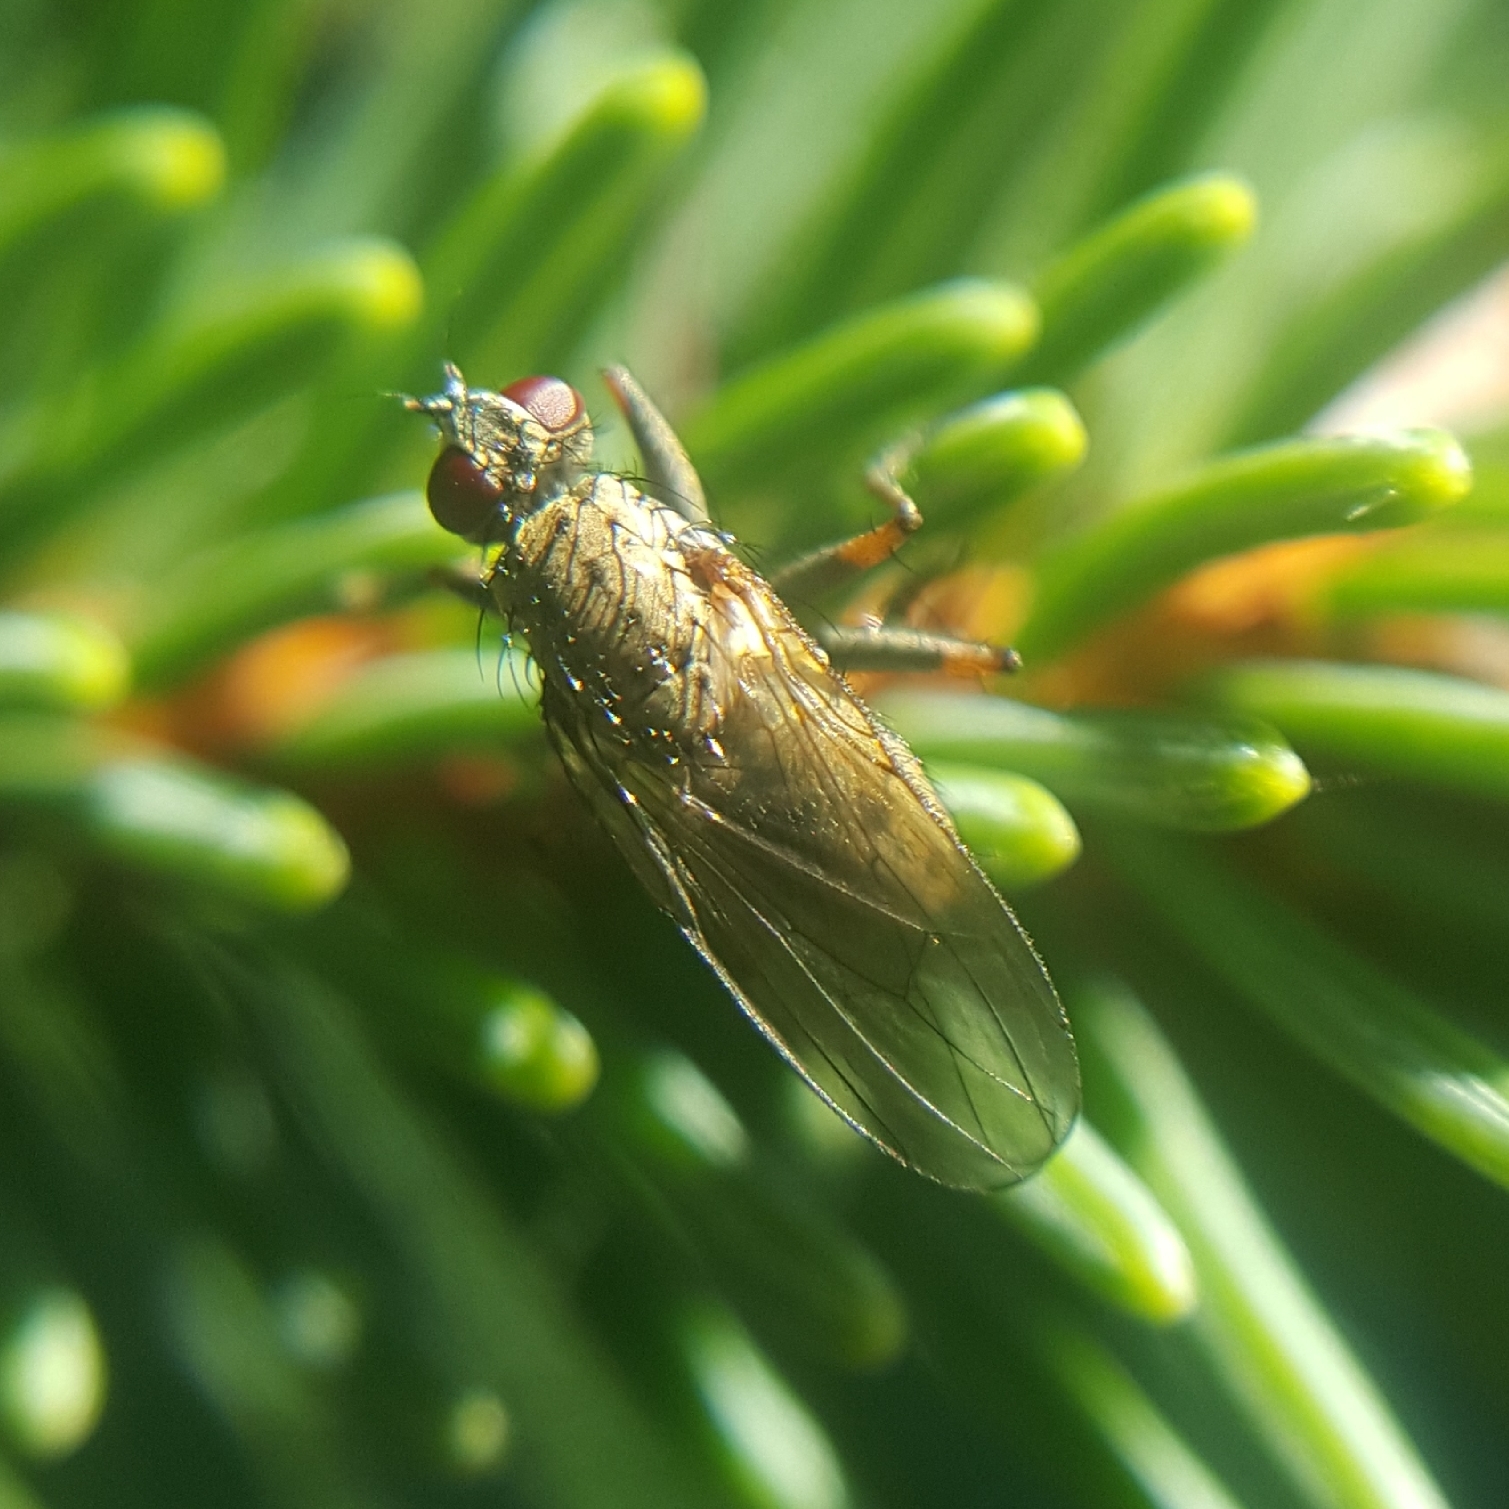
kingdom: Animalia
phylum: Arthropoda
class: Insecta
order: Diptera
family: Muscidae
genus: Coenosia
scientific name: Coenosia tigrina
